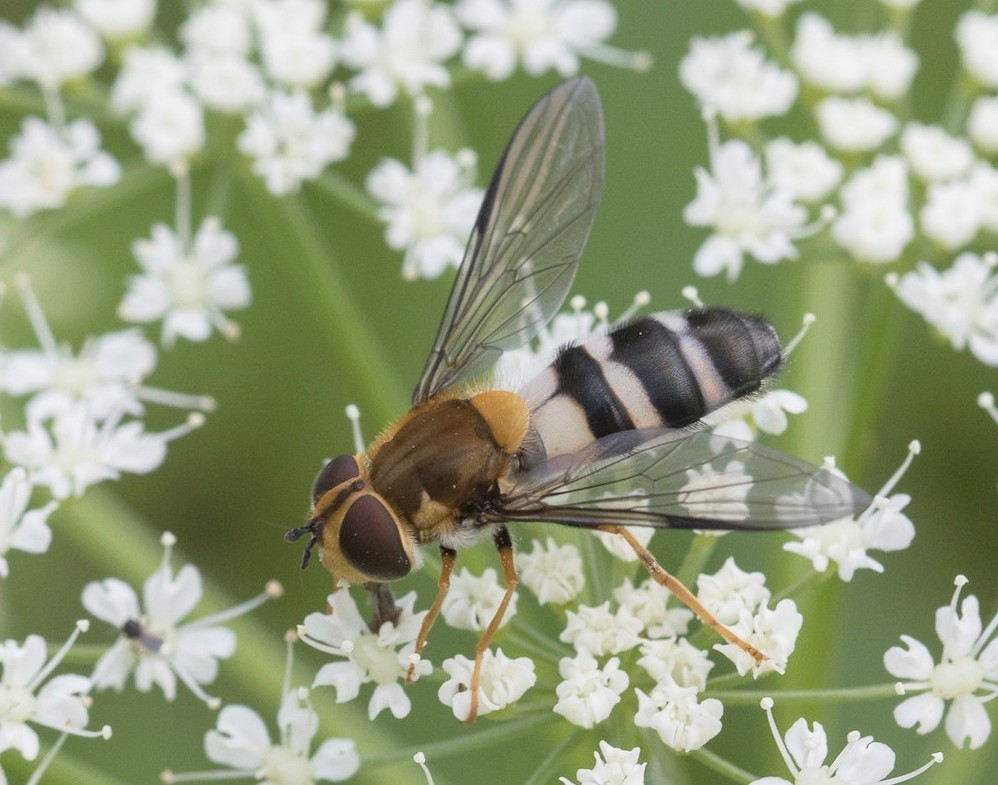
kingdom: Animalia
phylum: Arthropoda
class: Insecta
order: Diptera
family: Syrphidae
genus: Leucozona
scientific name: Leucozona glaucia
